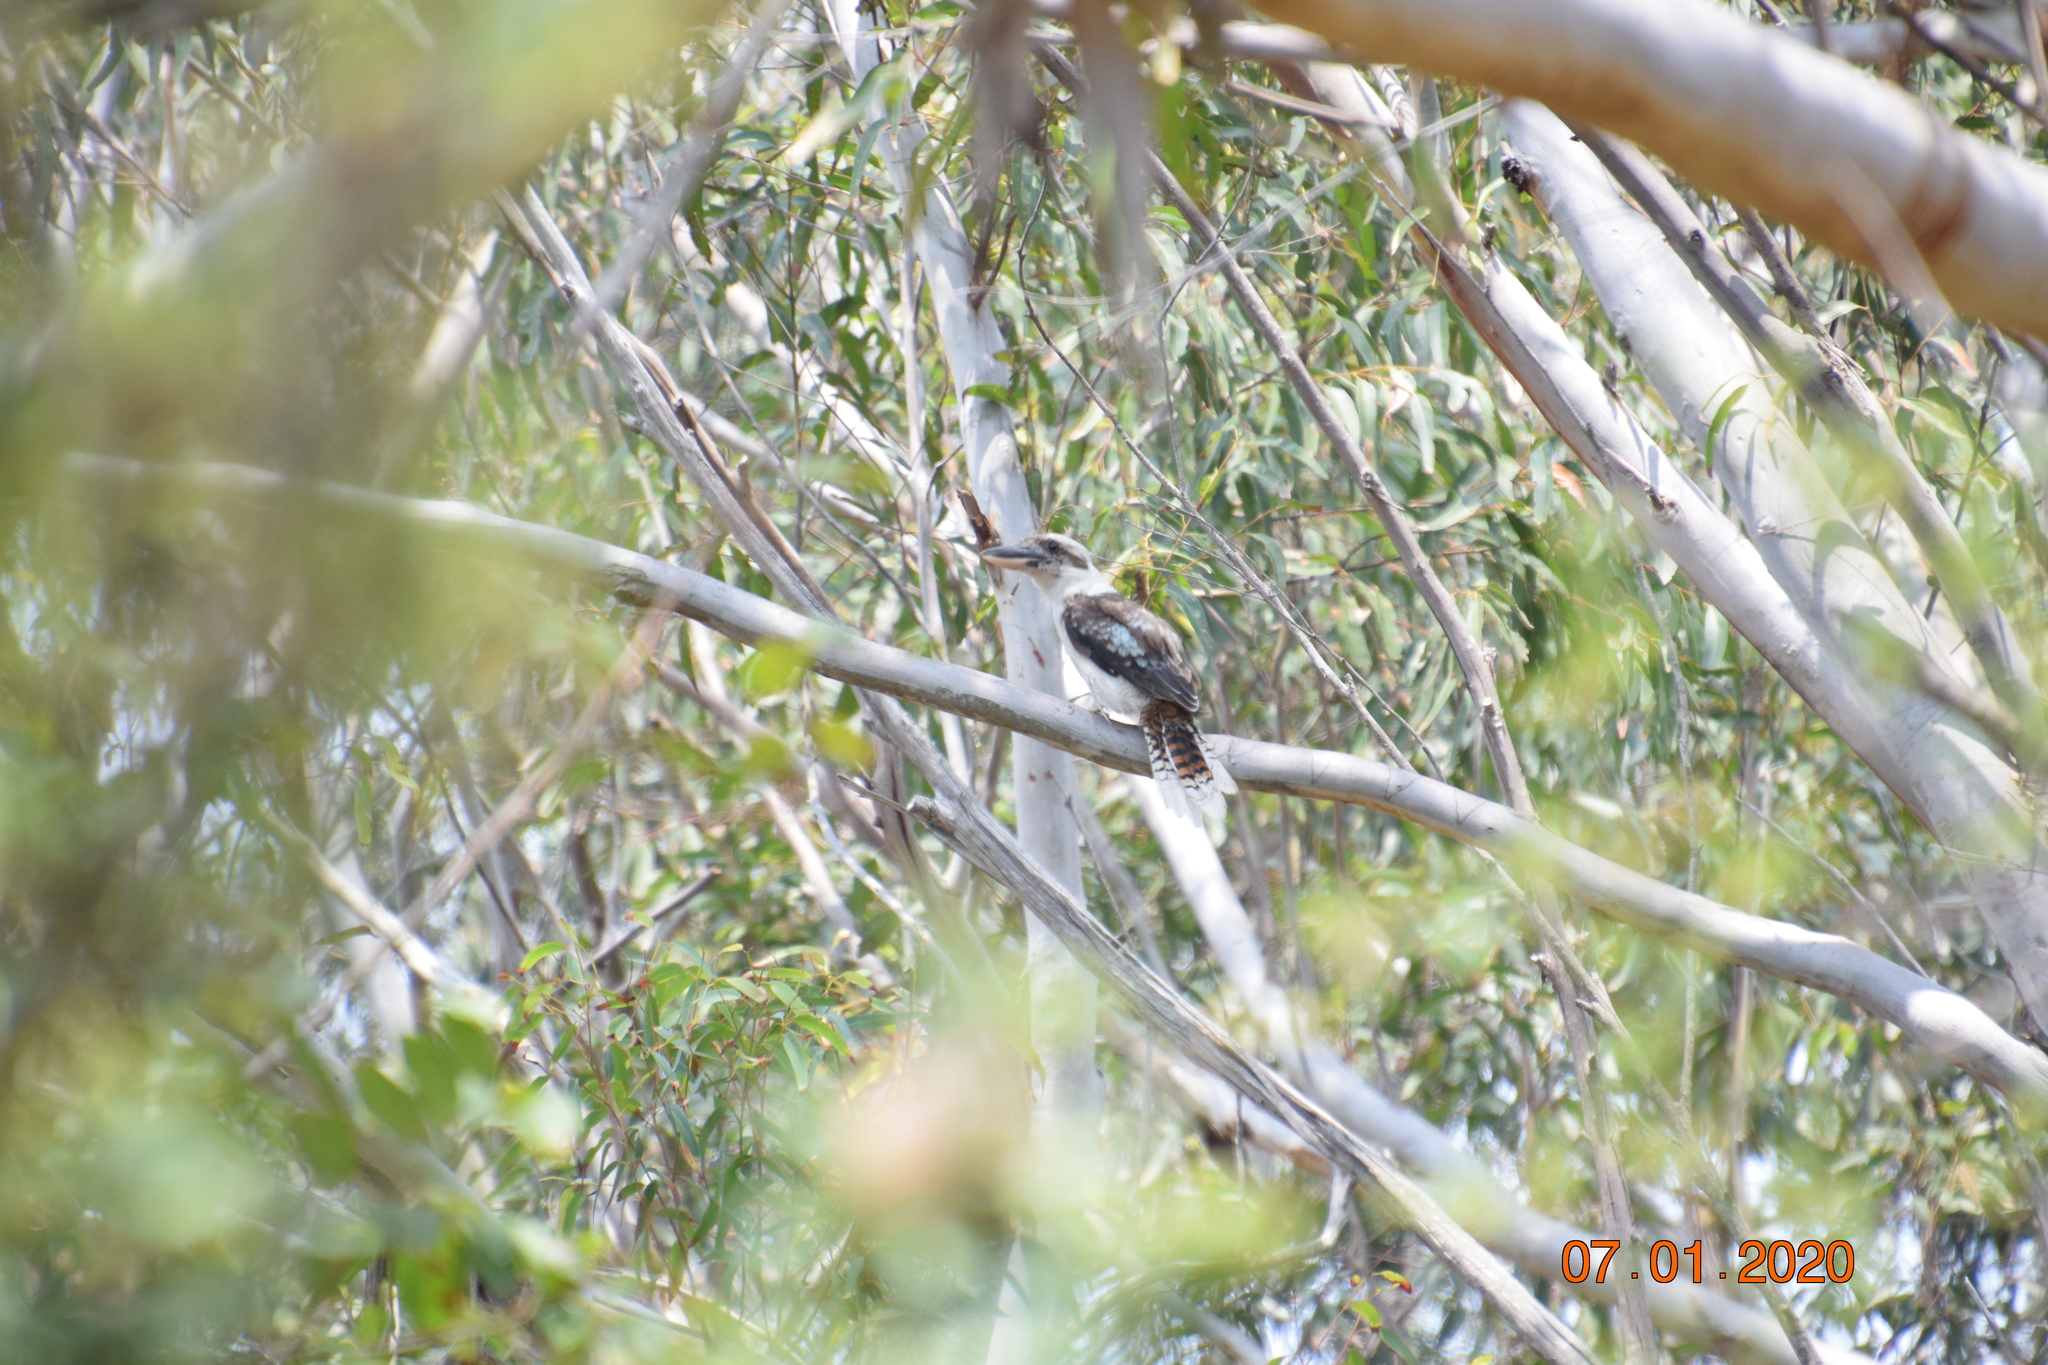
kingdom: Animalia
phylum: Chordata
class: Aves
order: Coraciiformes
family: Alcedinidae
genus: Dacelo
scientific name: Dacelo novaeguineae
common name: Laughing kookaburra
